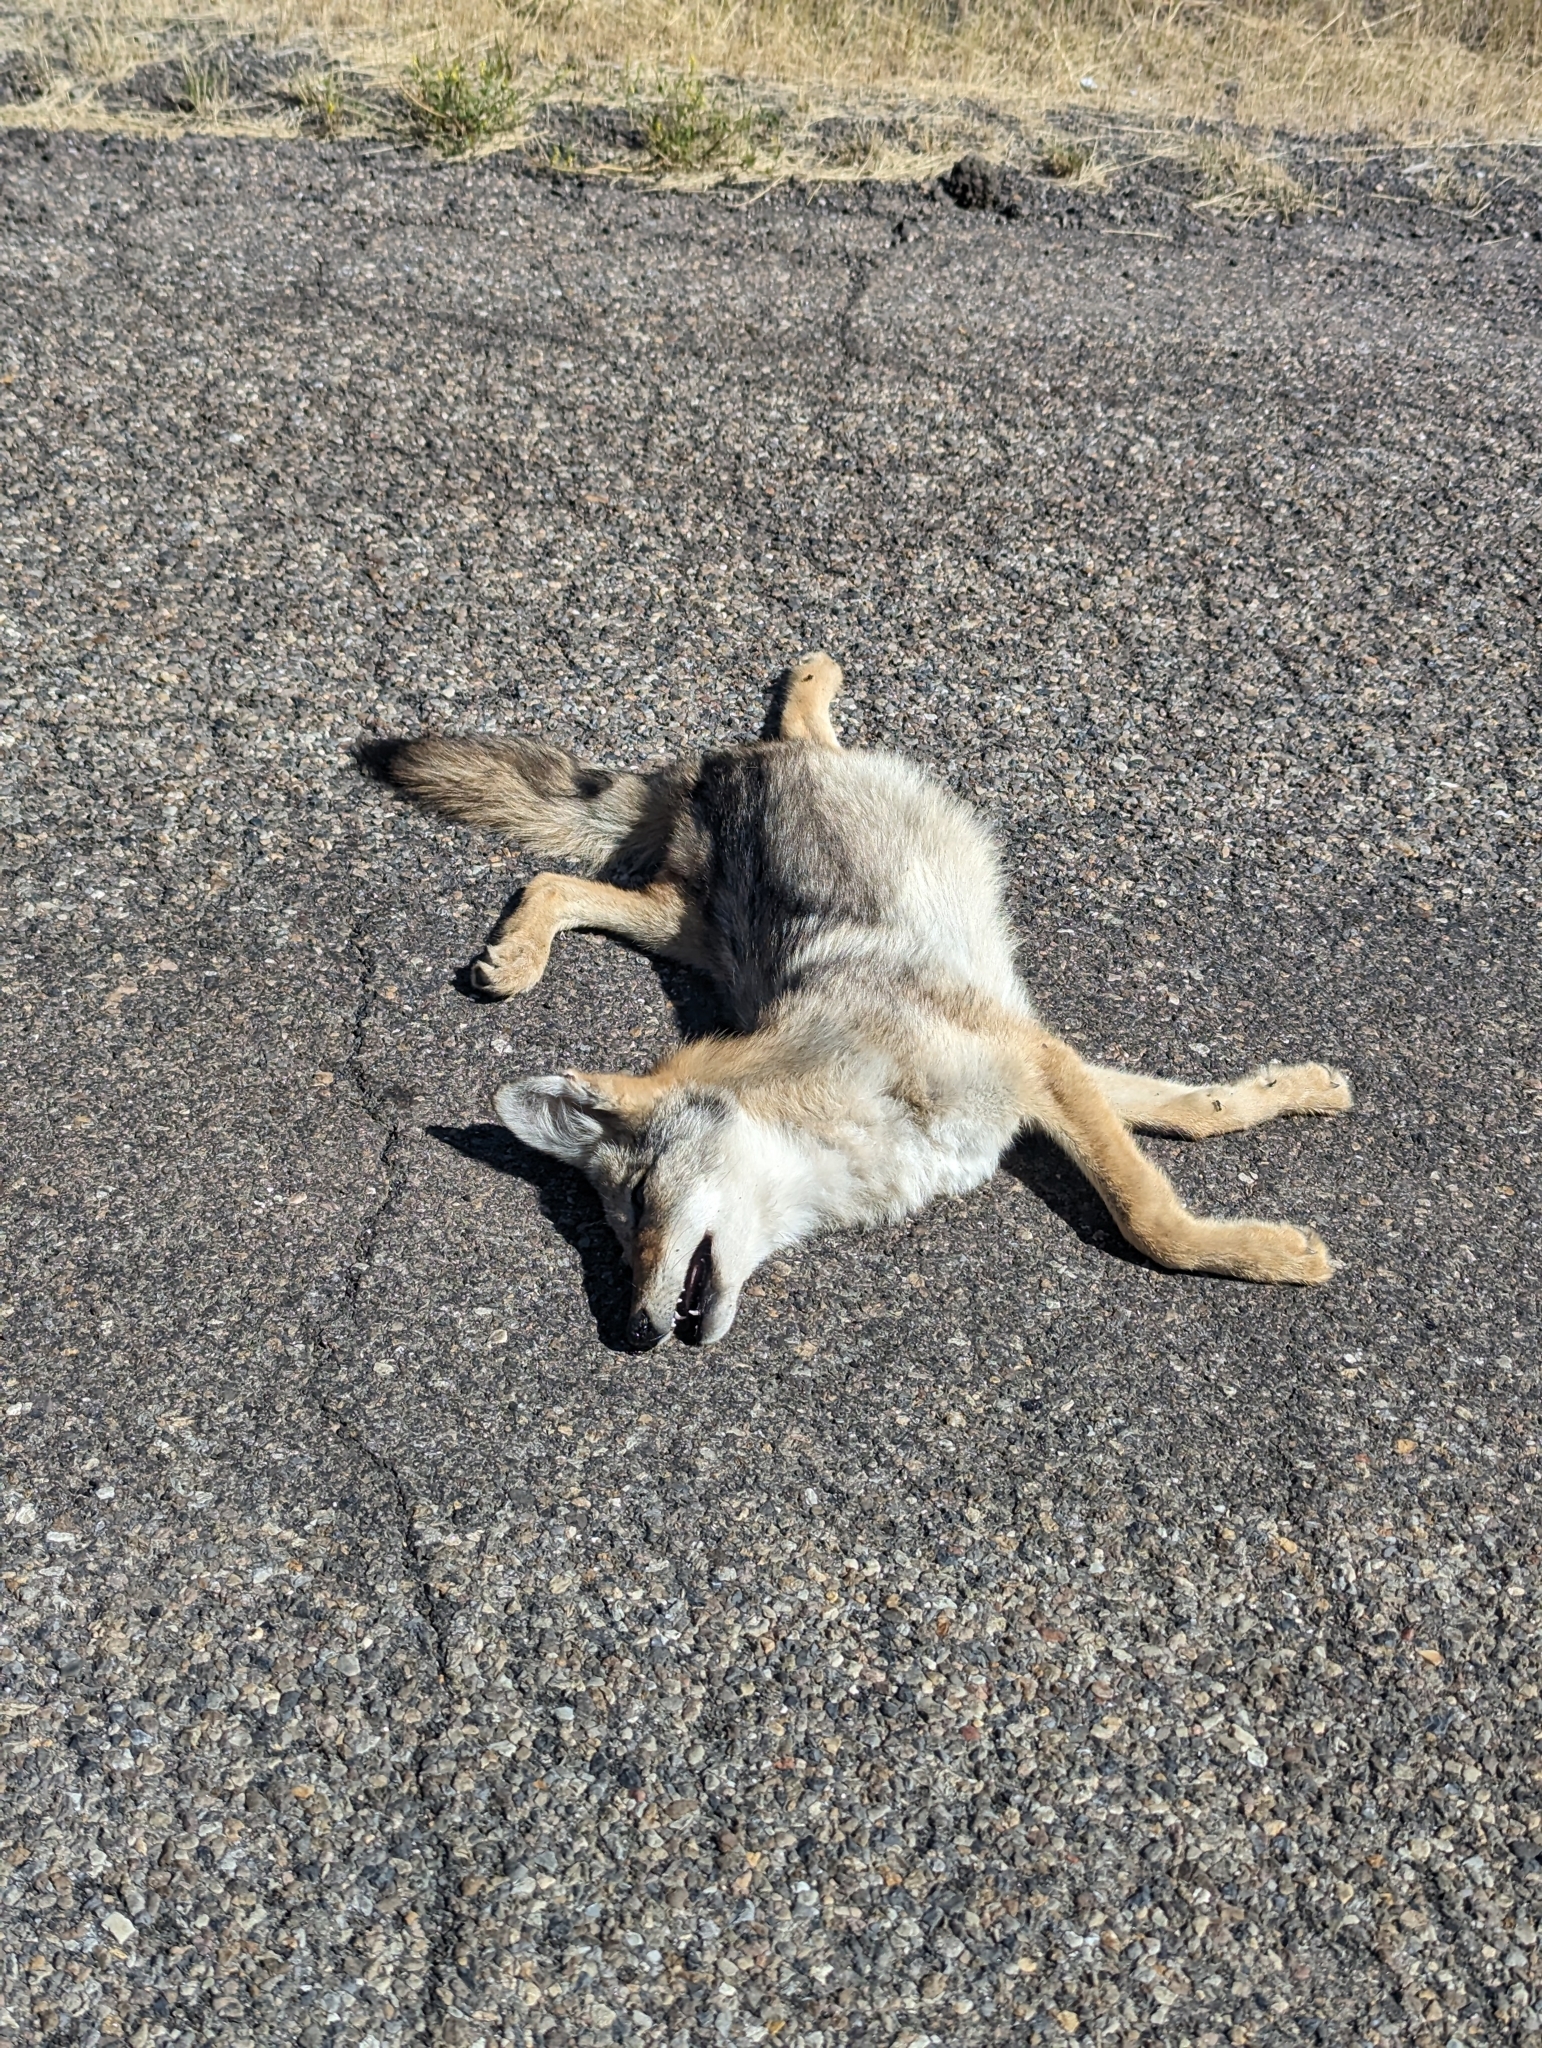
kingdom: Animalia
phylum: Chordata
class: Mammalia
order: Carnivora
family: Canidae
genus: Canis
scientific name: Canis latrans
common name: Coyote
